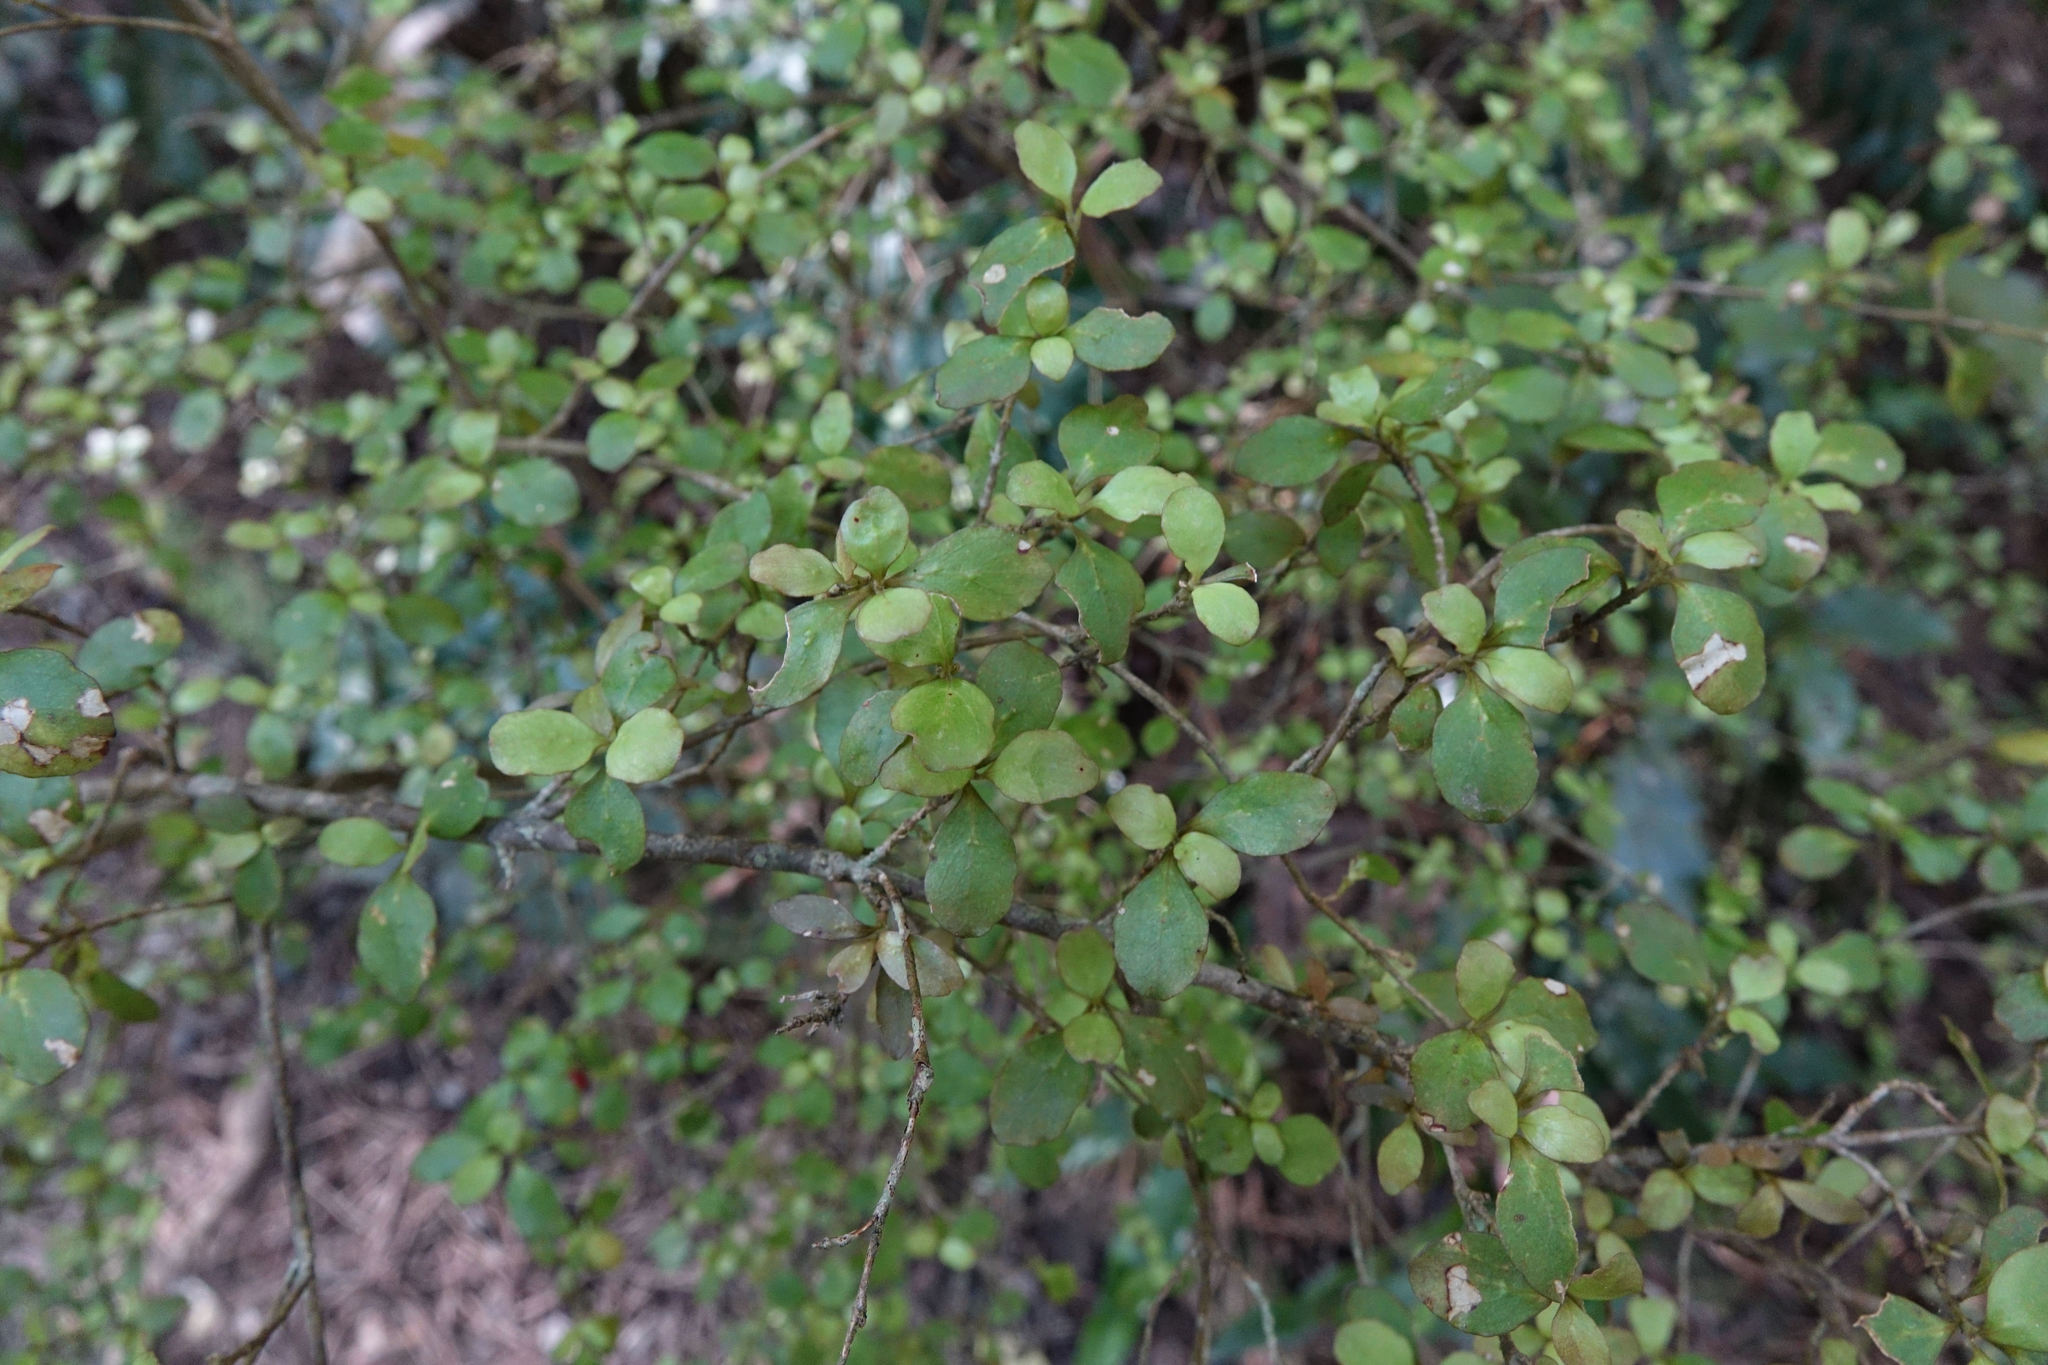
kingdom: Plantae
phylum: Tracheophyta
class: Magnoliopsida
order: Gentianales
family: Rubiaceae
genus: Coprosma
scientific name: Coprosma rhamnoides
